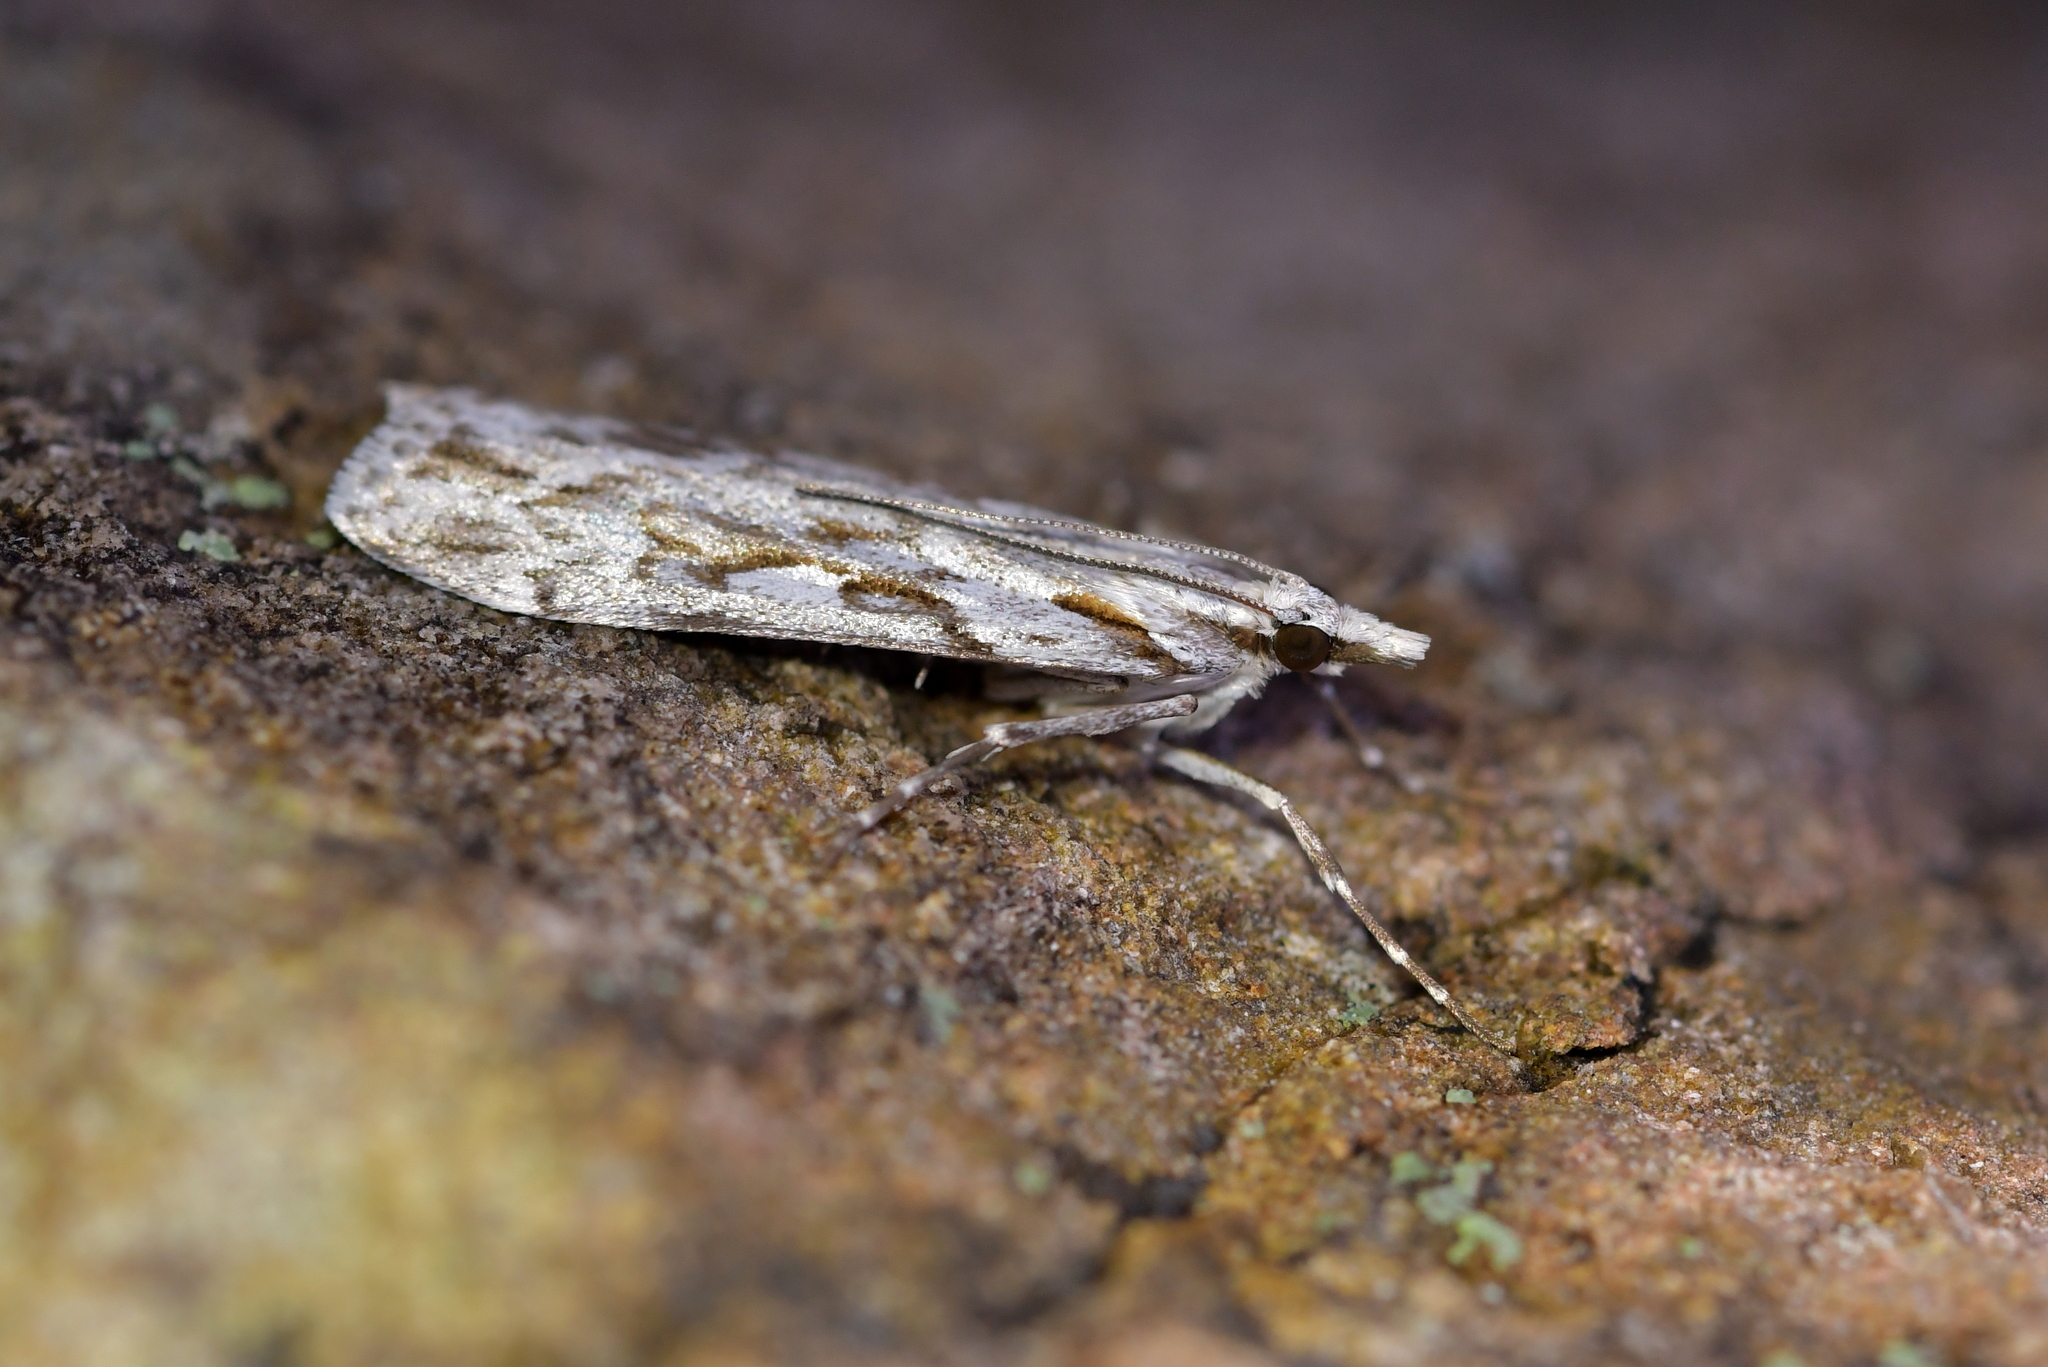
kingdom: Animalia
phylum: Arthropoda
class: Insecta
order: Lepidoptera
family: Crambidae
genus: Scoparia
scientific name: Scoparia petrina
